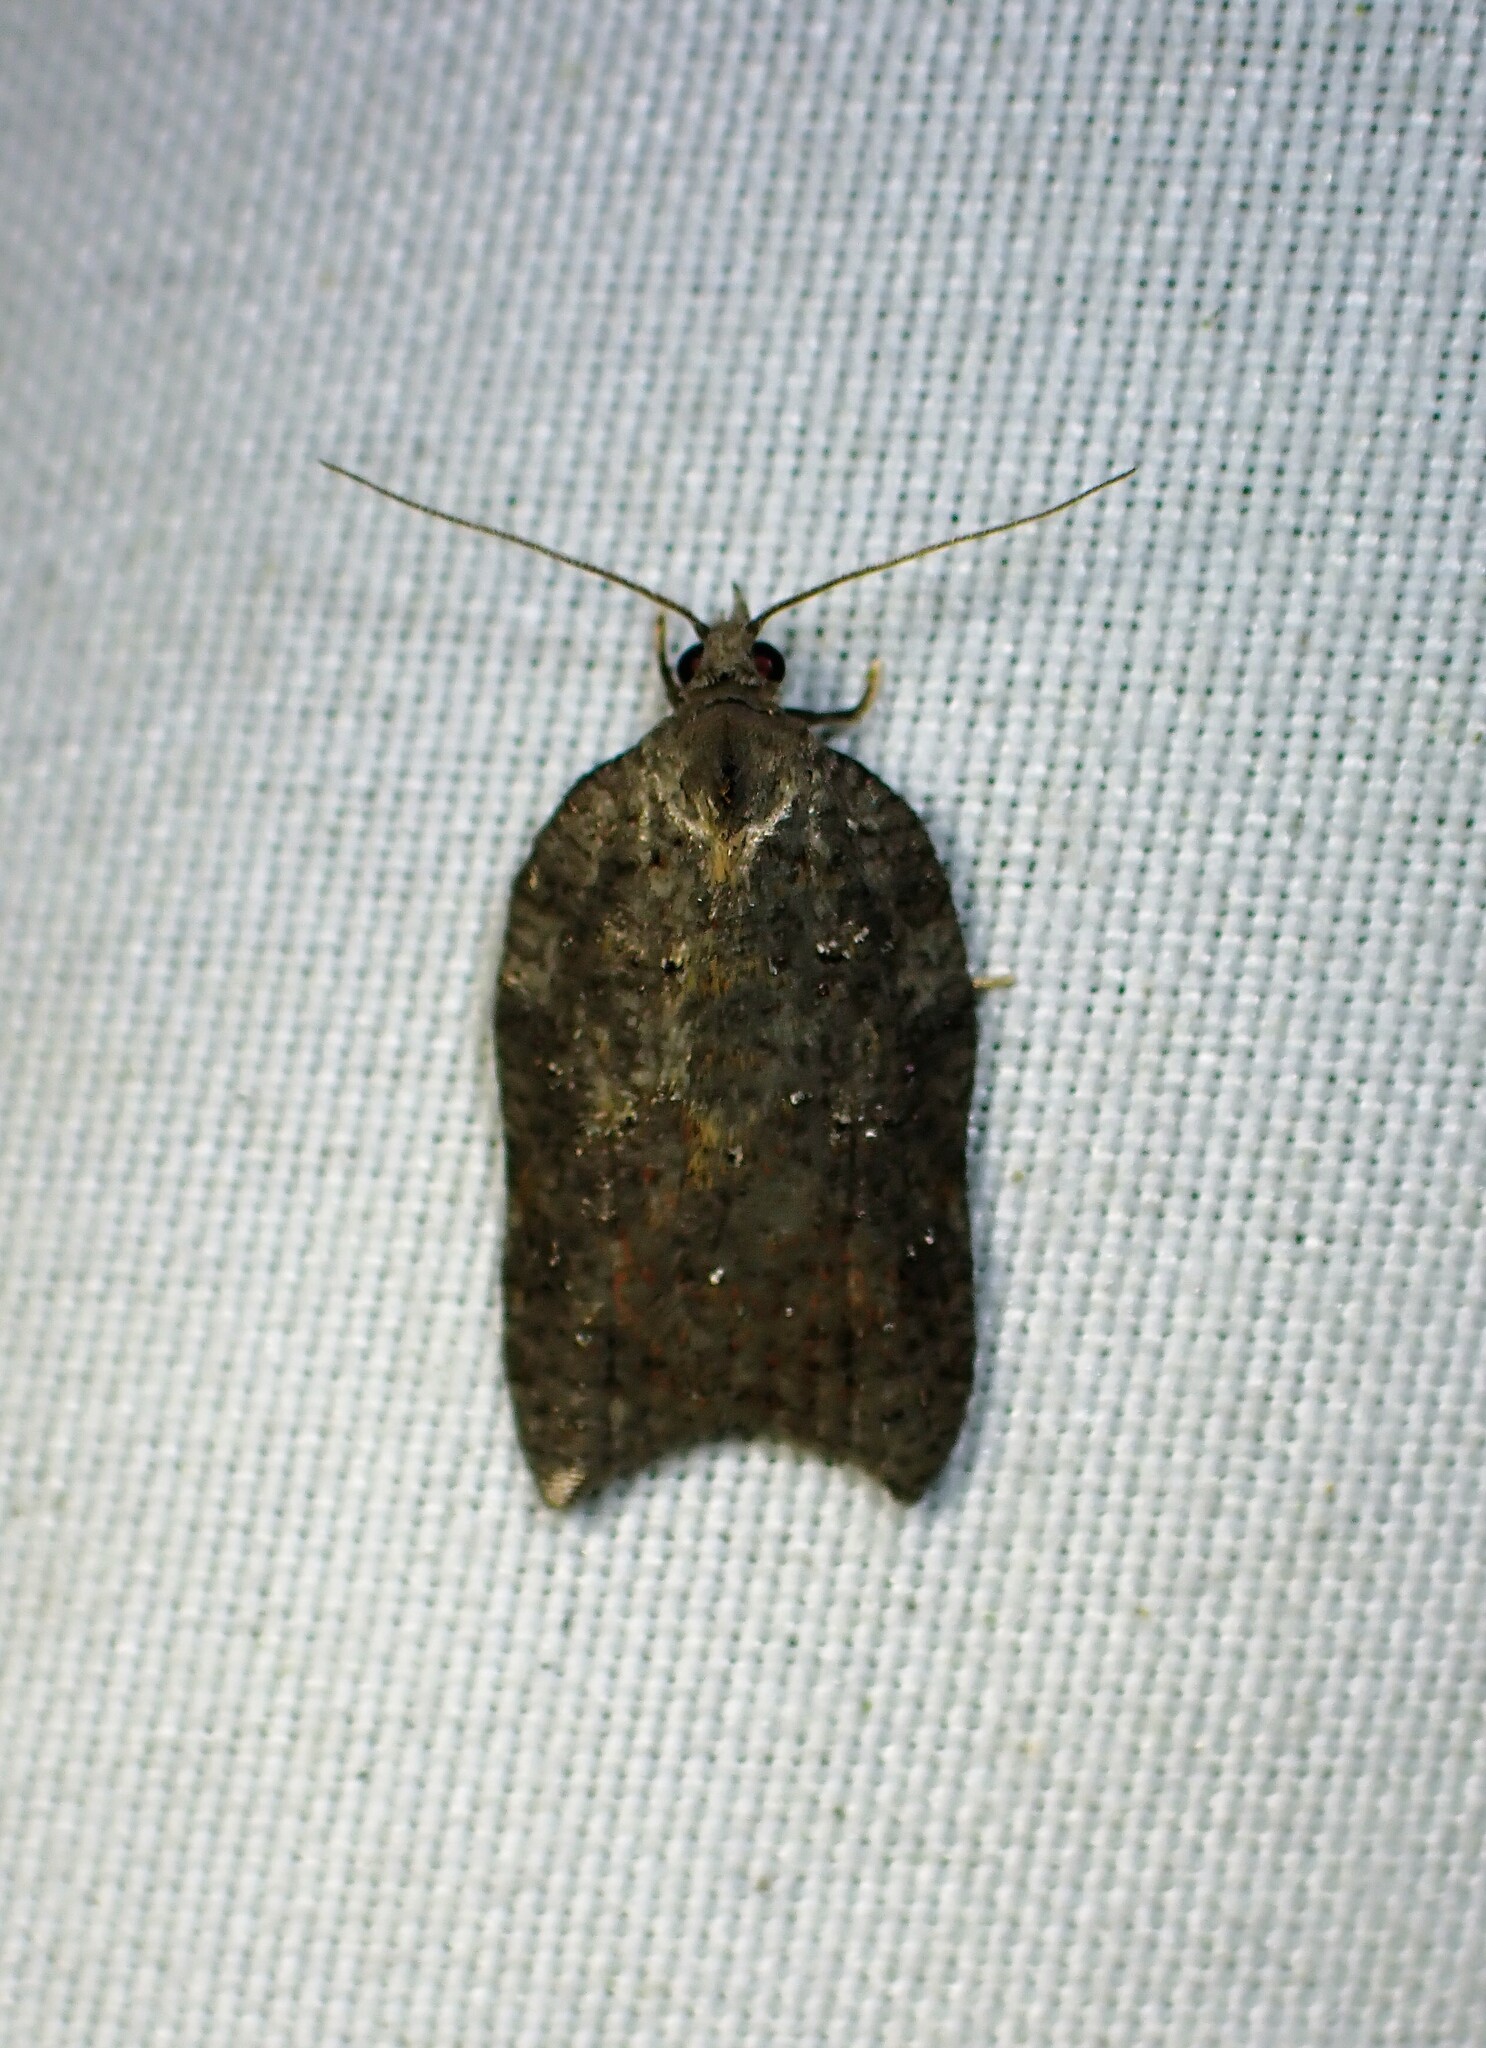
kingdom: Animalia
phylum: Arthropoda
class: Insecta
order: Lepidoptera
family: Tortricidae
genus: Acleris
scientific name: Acleris effractana
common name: Hook-winged tortrix moth
